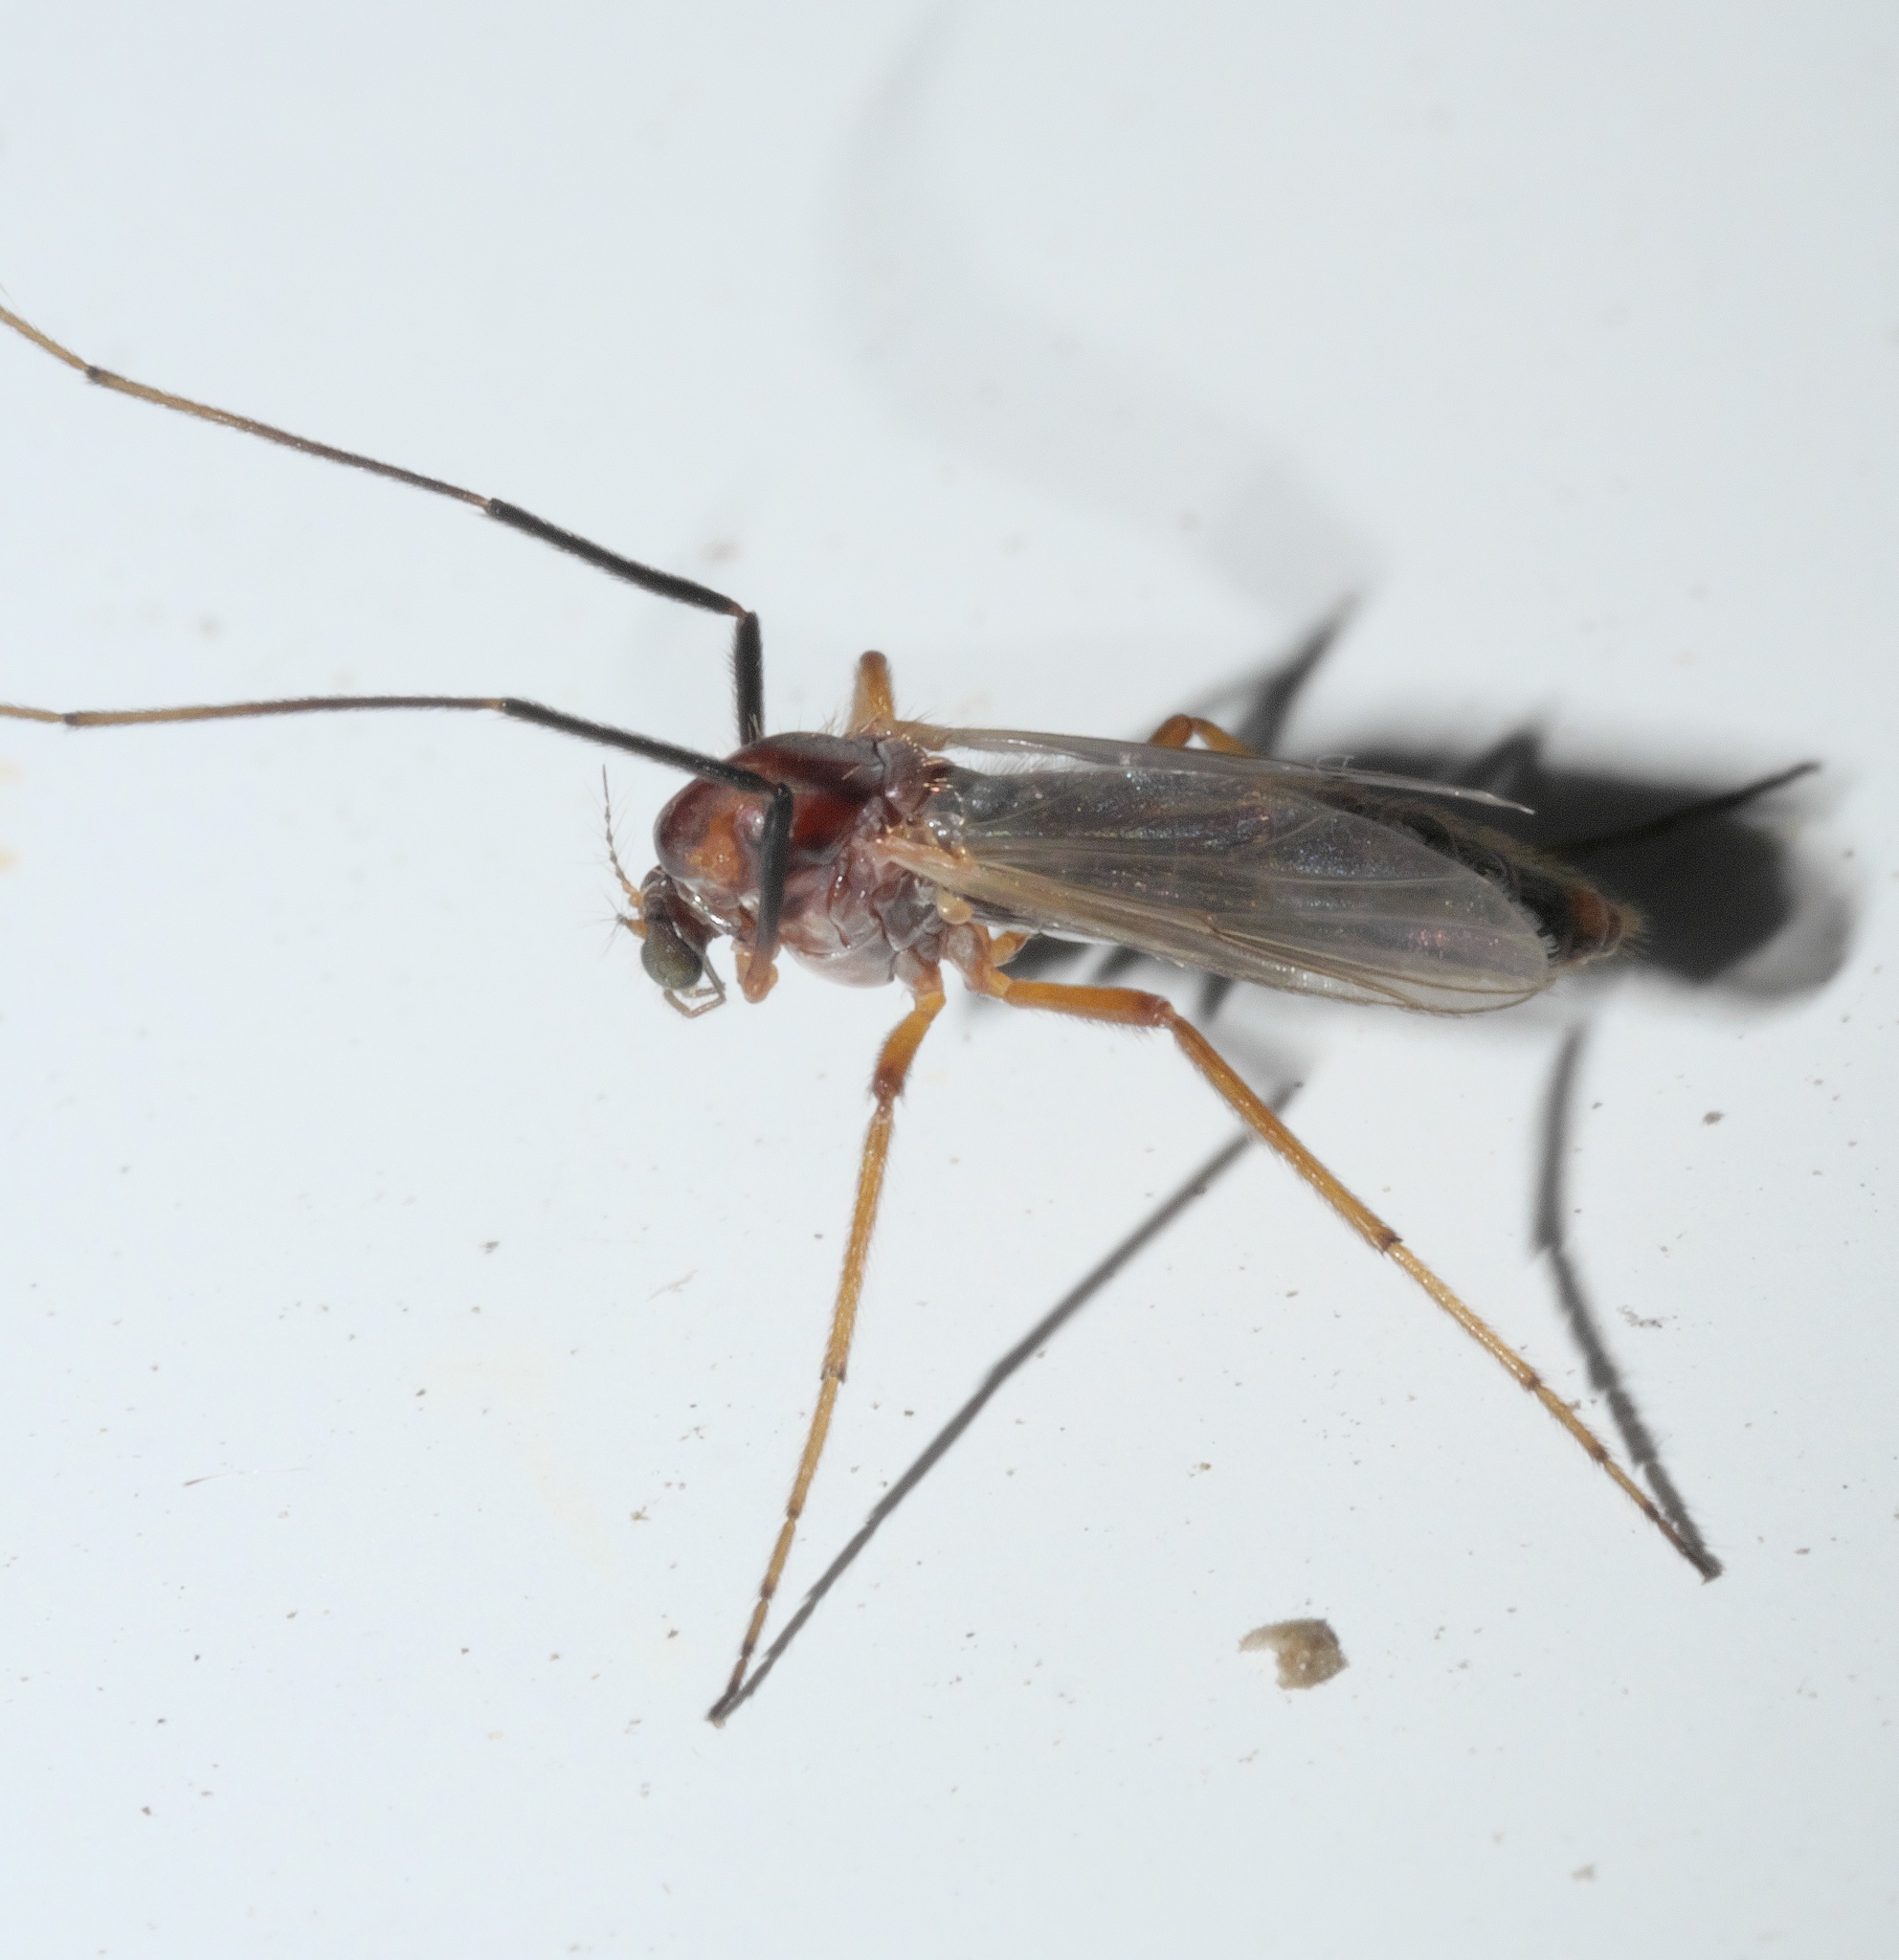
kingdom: Animalia
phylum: Arthropoda
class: Insecta
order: Diptera
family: Chironomidae
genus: Glyptotendipes
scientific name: Glyptotendipes testaceus
